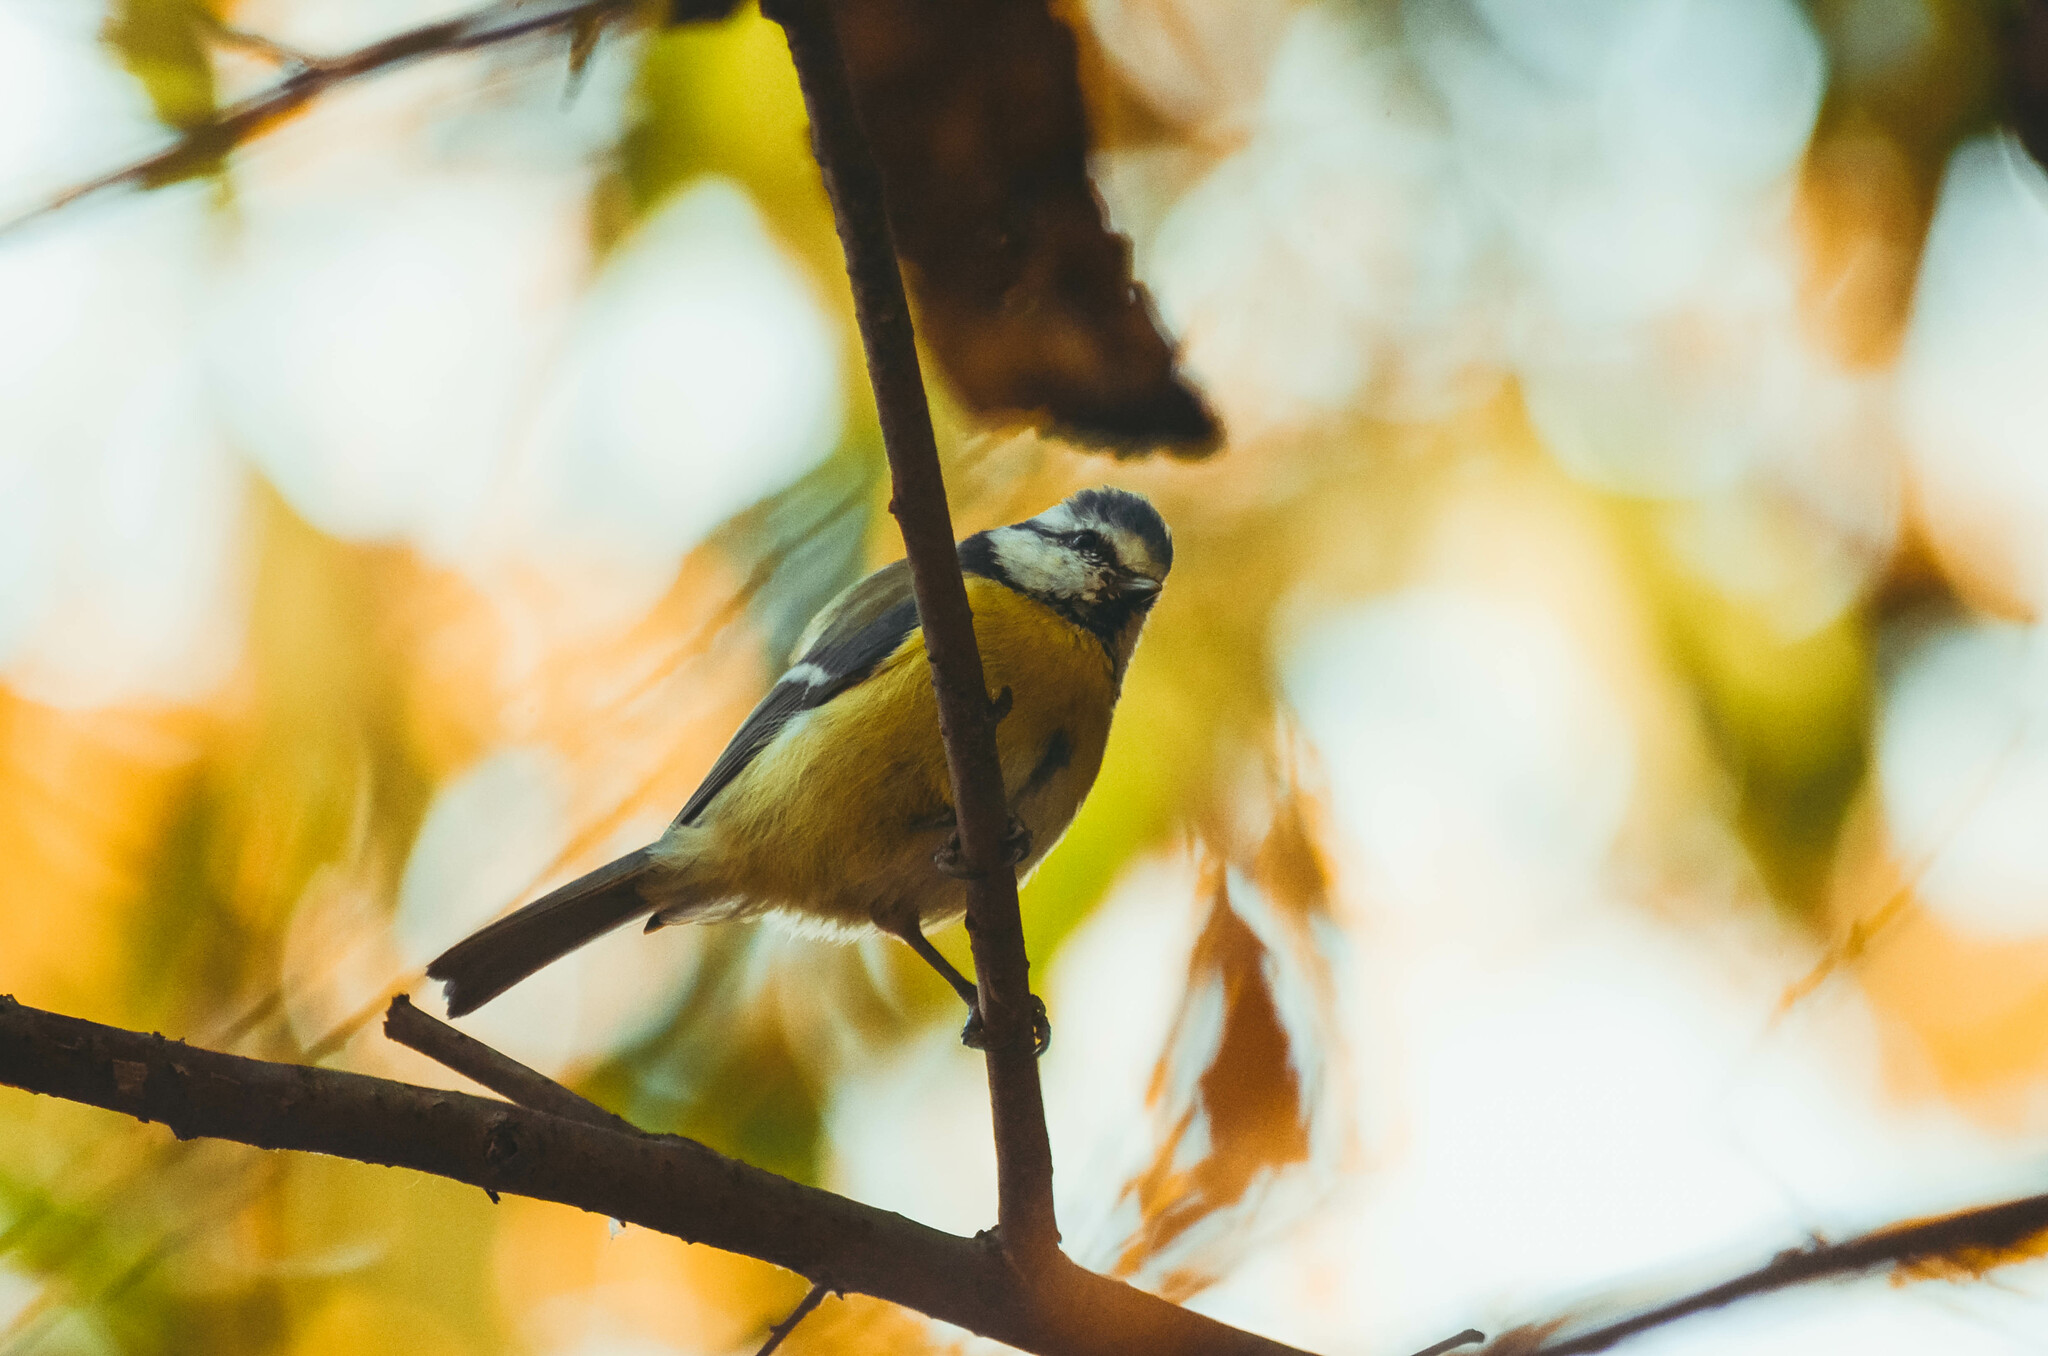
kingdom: Animalia
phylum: Chordata
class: Aves
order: Passeriformes
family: Paridae
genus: Cyanistes
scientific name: Cyanistes caeruleus
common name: Eurasian blue tit
